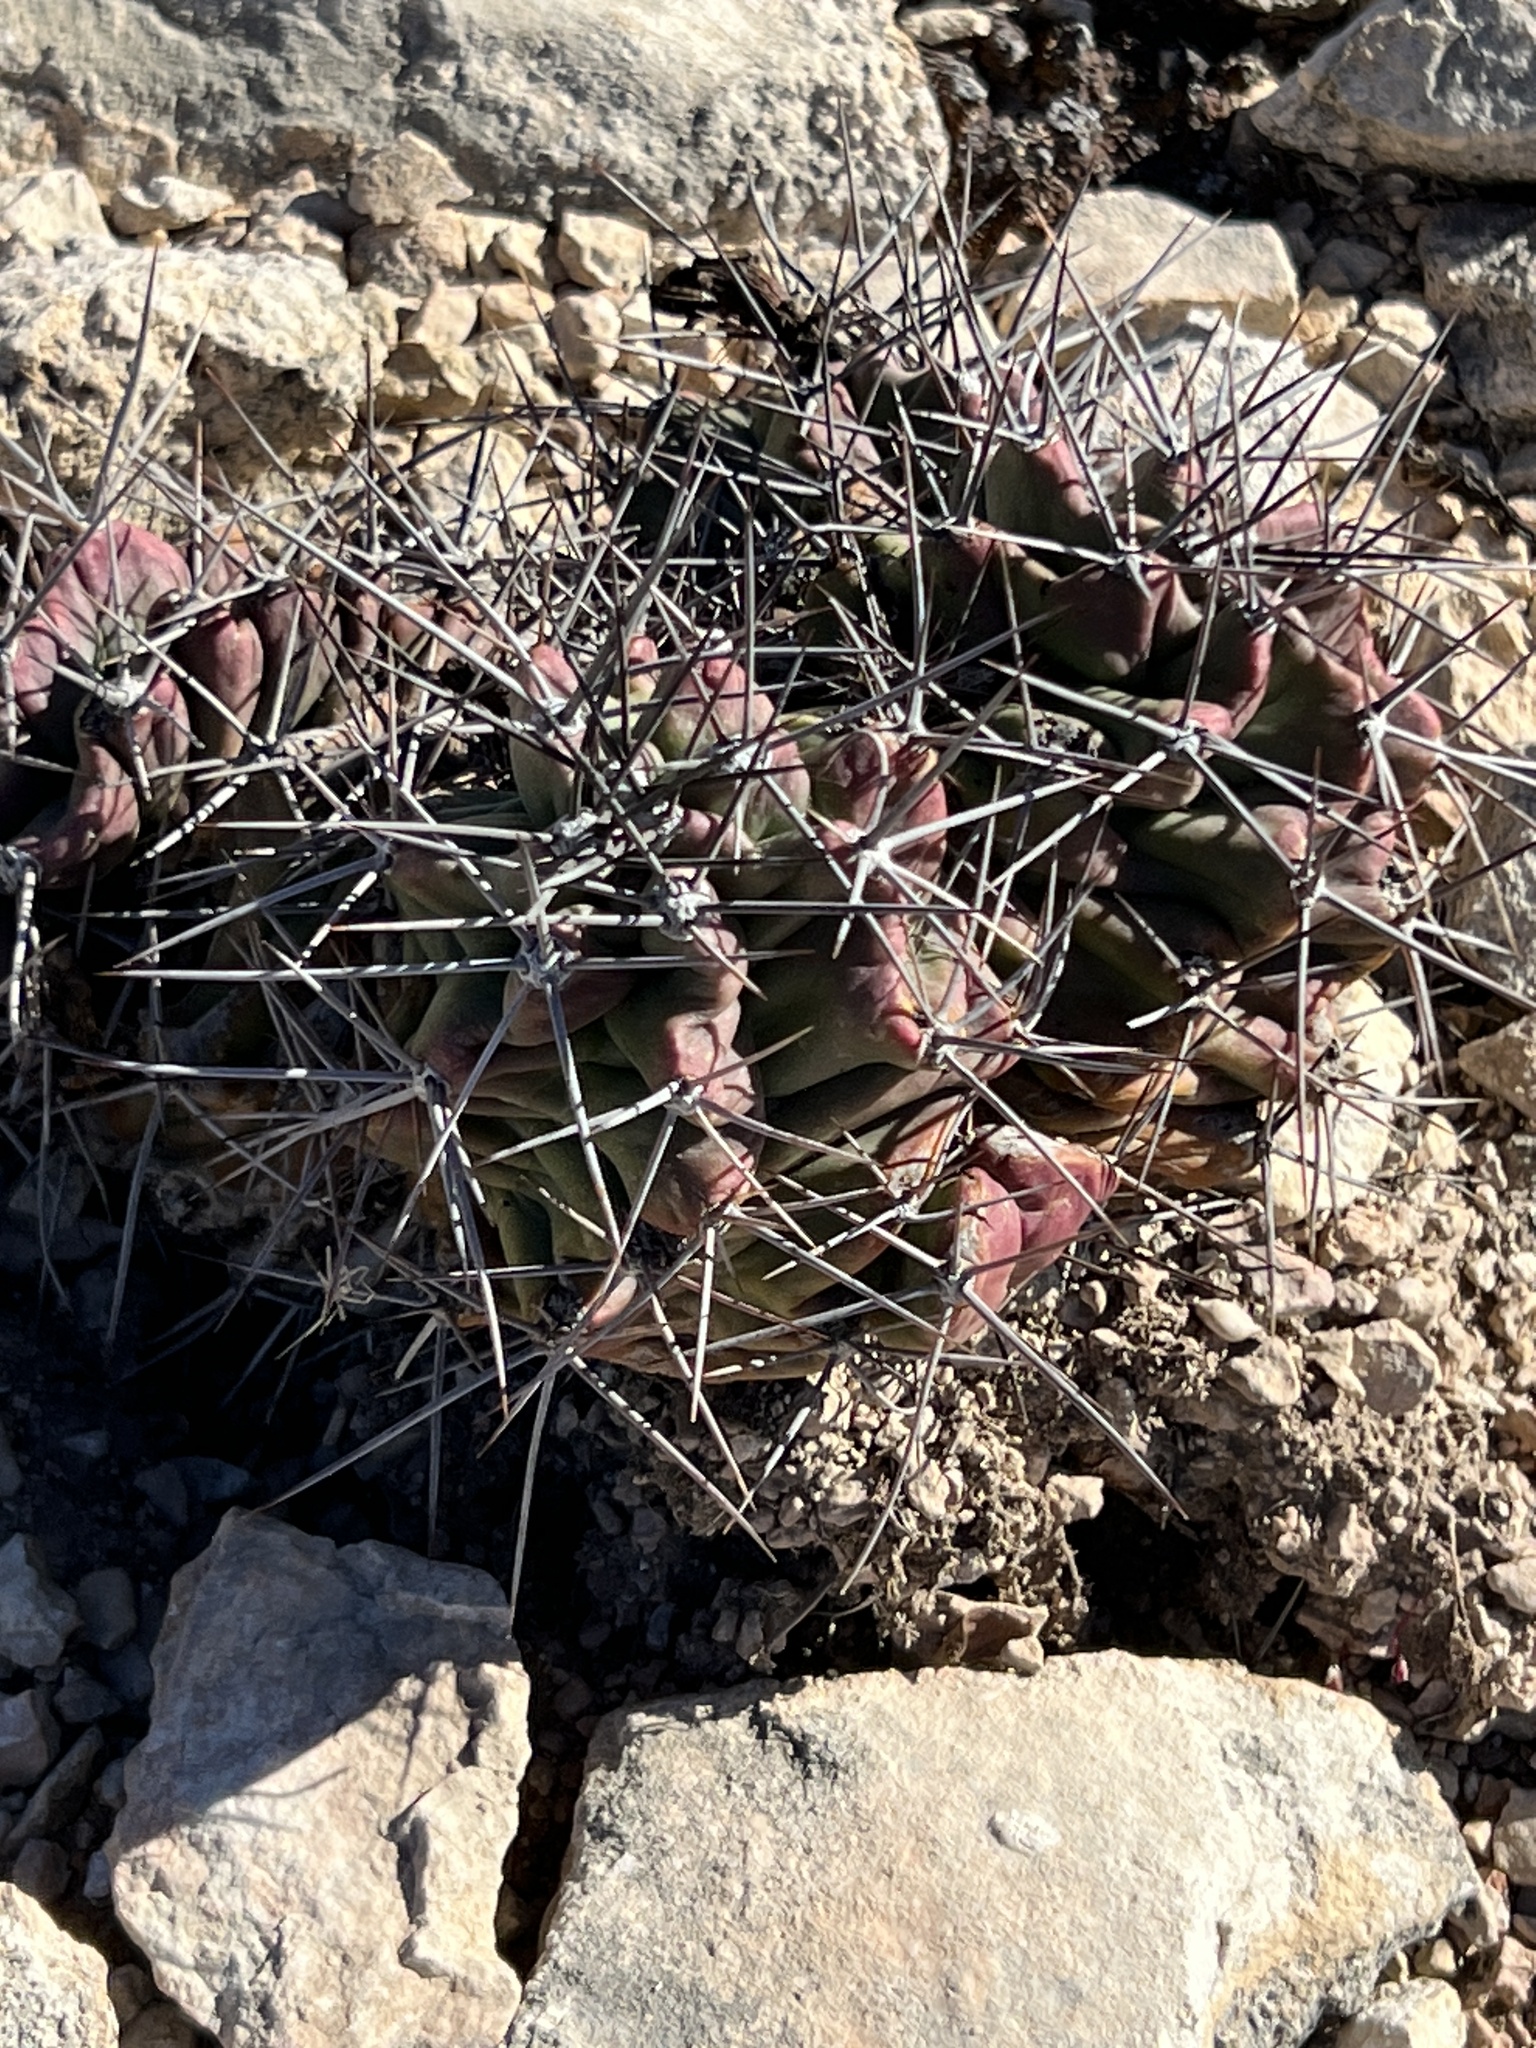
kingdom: Plantae
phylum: Tracheophyta
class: Magnoliopsida
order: Caryophyllales
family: Cactaceae
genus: Echinocereus
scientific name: Echinocereus coccineus
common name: Scarlet hedgehog cactus
